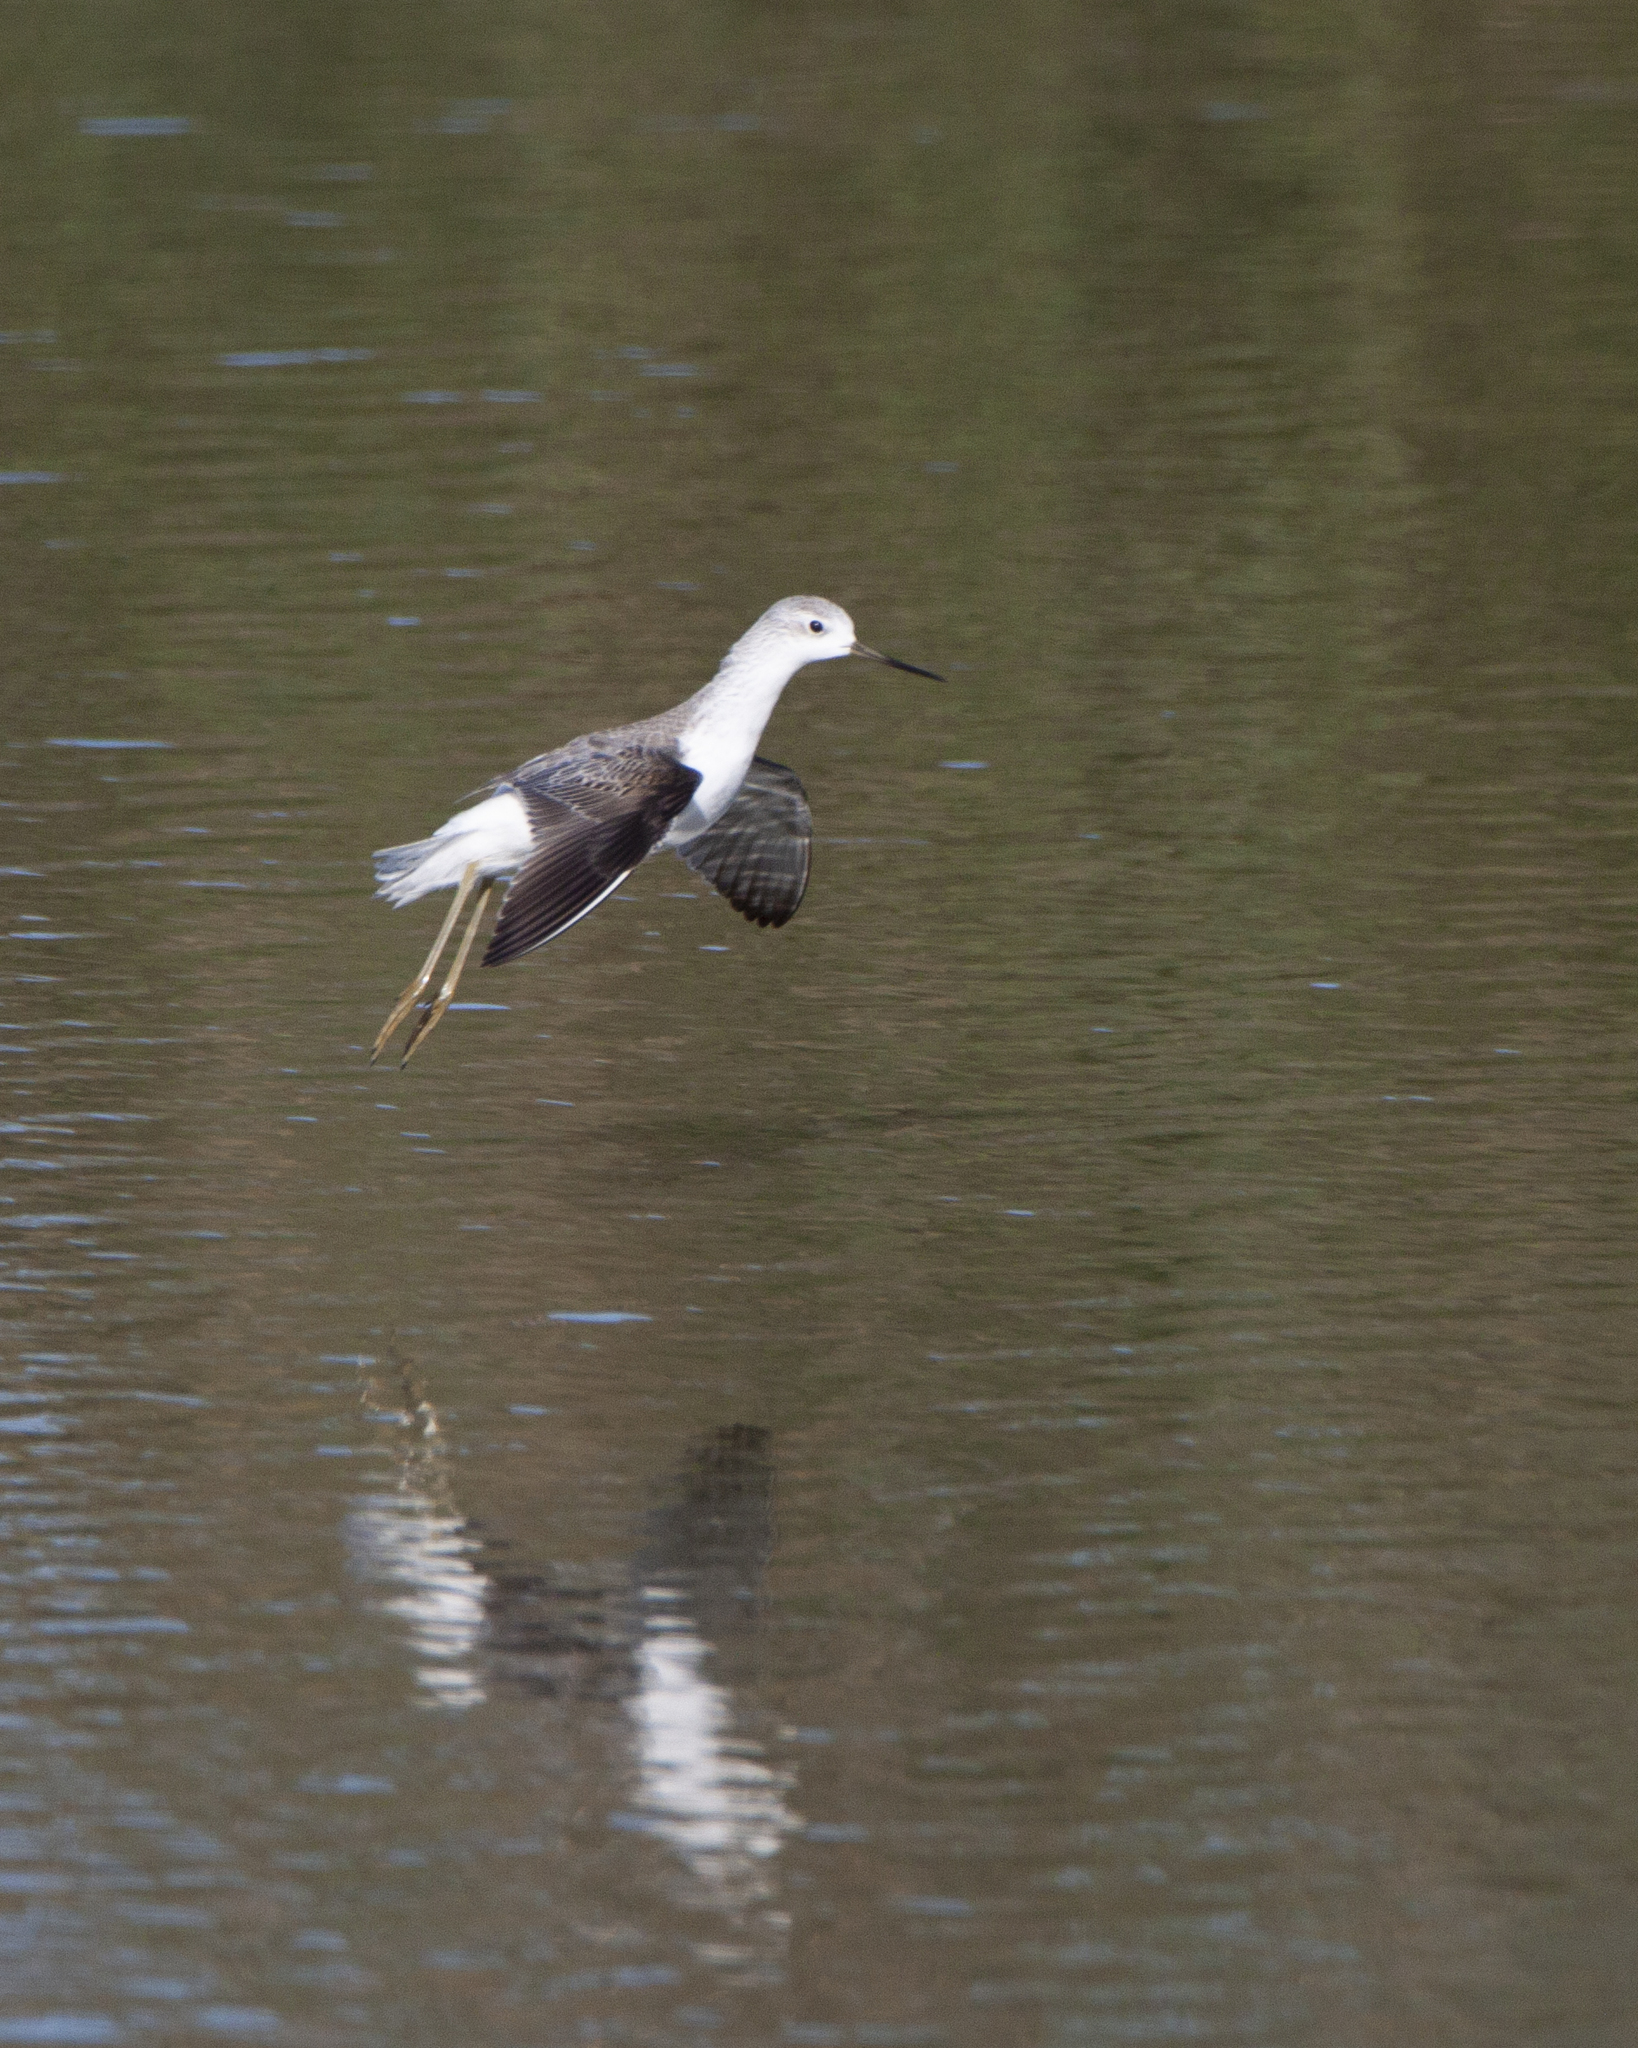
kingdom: Animalia
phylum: Chordata
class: Aves
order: Charadriiformes
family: Scolopacidae
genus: Tringa
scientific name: Tringa stagnatilis
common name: Marsh sandpiper
